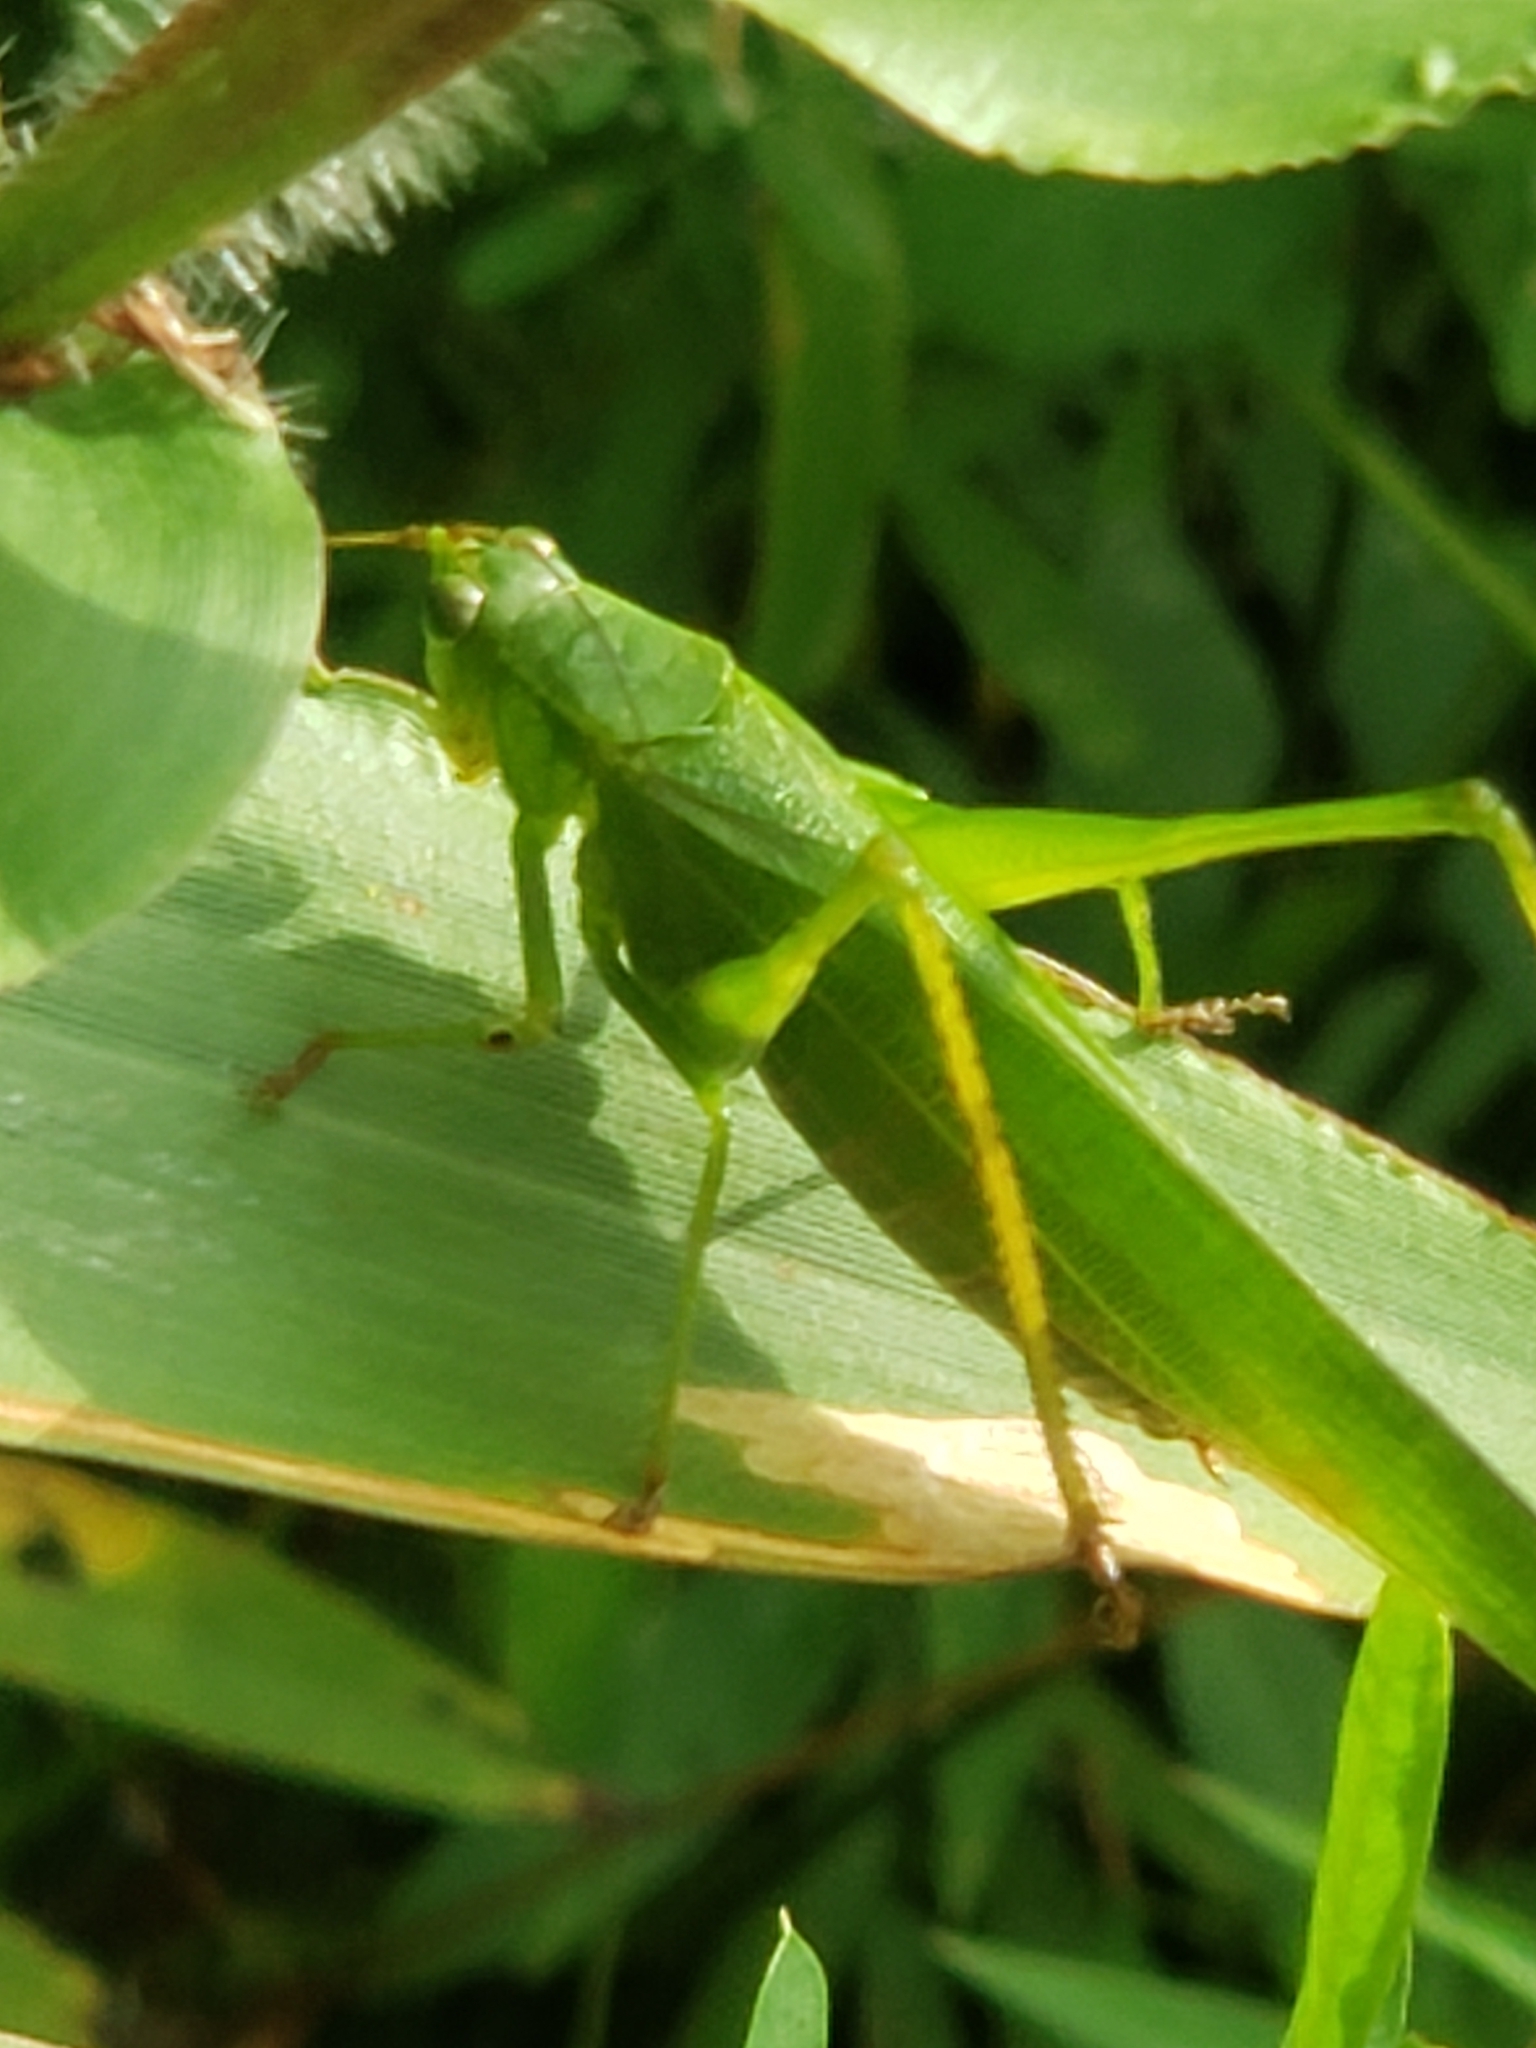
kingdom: Animalia
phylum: Arthropoda
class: Insecta
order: Orthoptera
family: Tettigoniidae
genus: Scudderia
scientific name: Scudderia furcata
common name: Fork-tailed bush katydid
